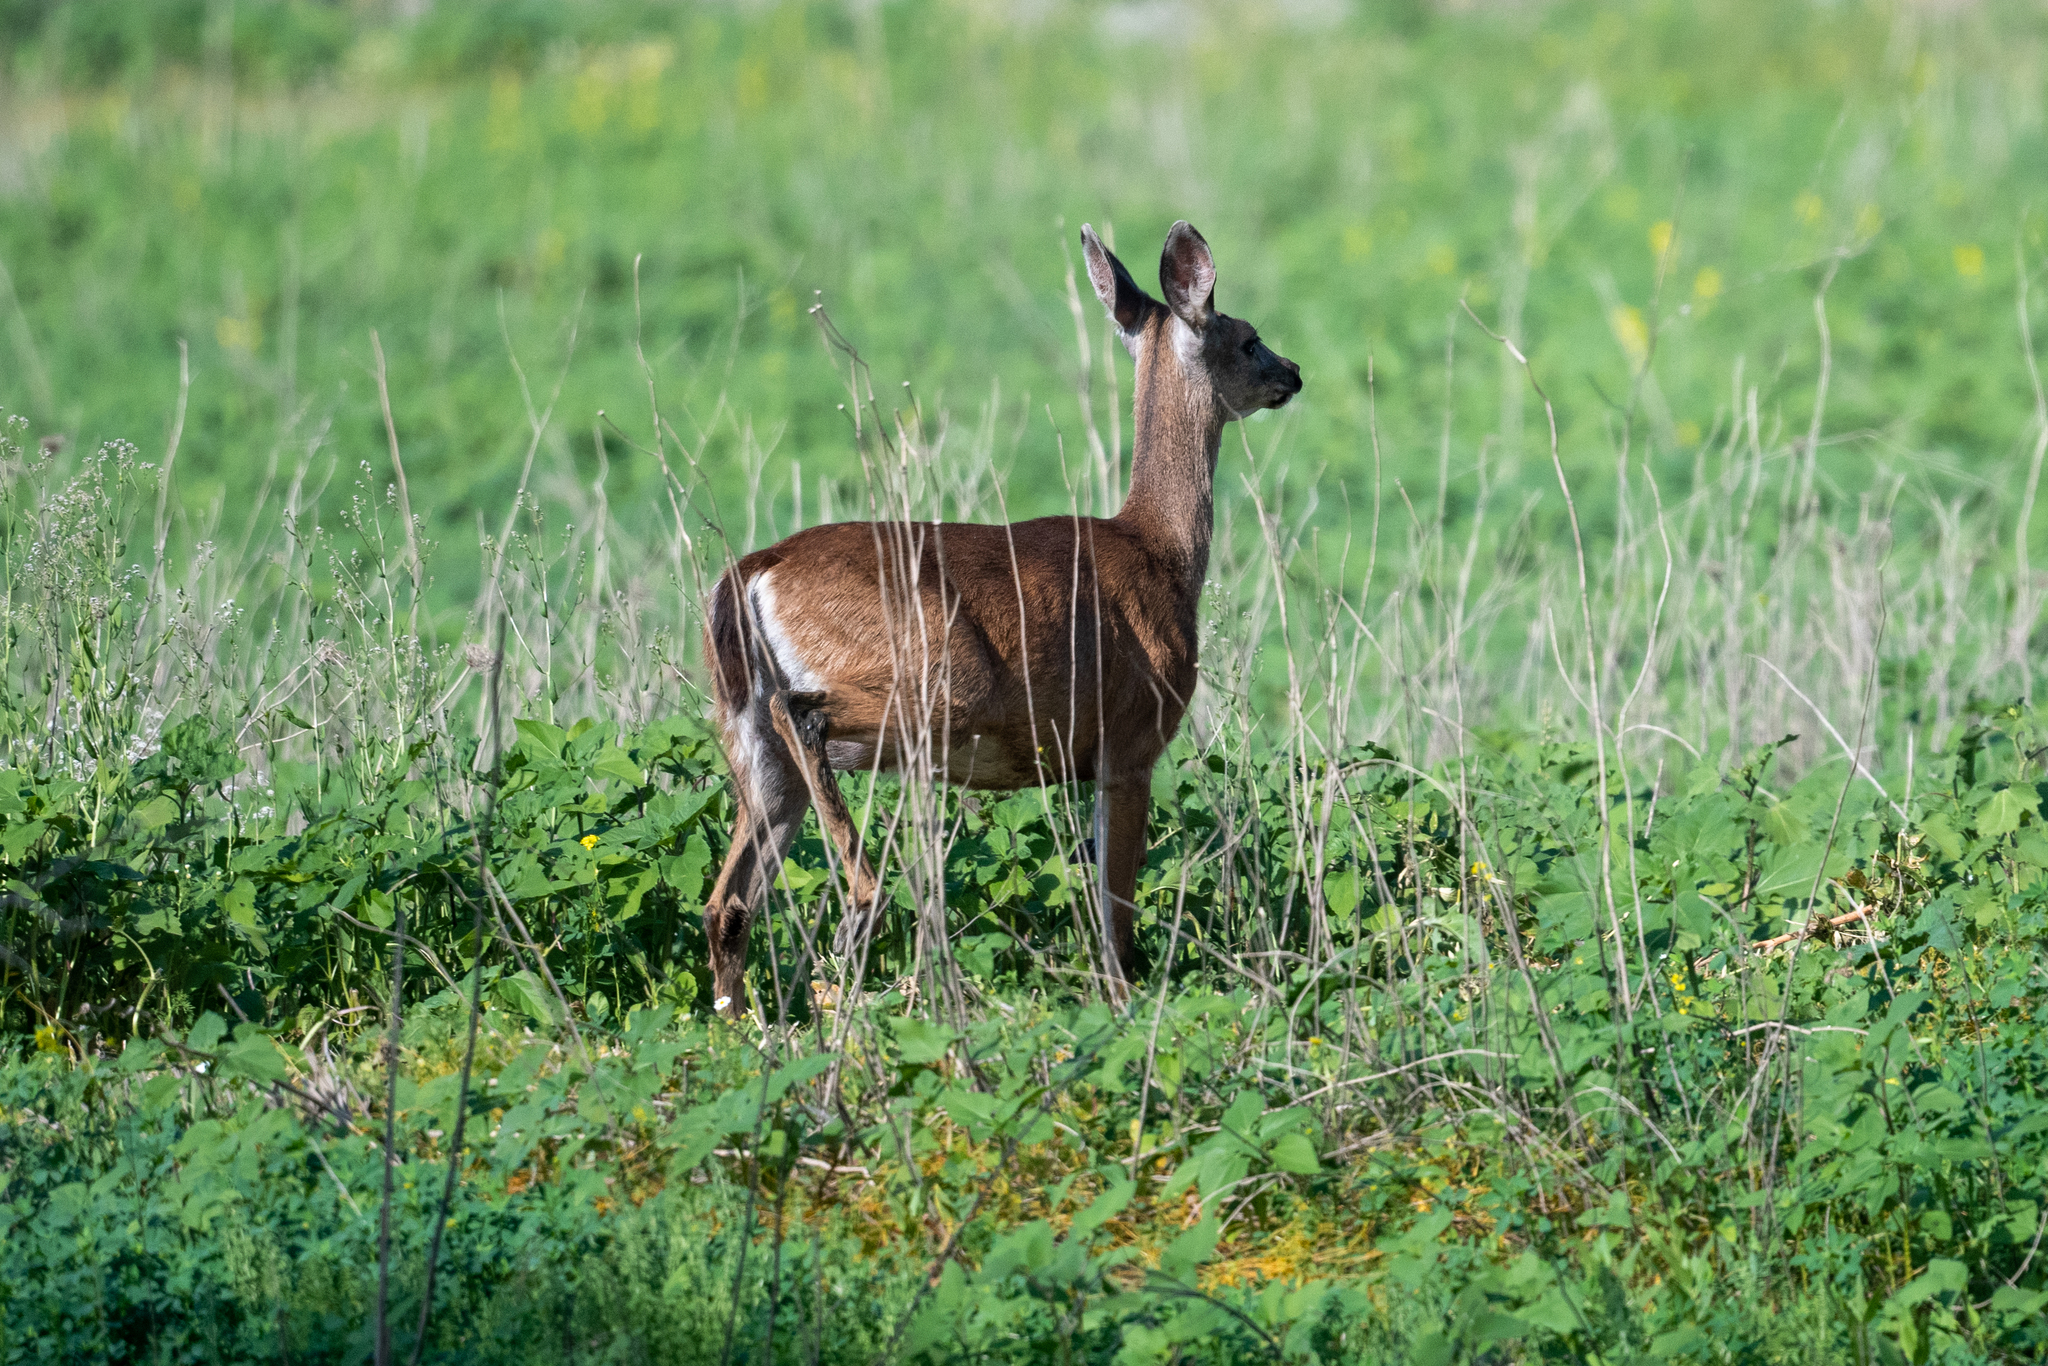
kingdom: Animalia
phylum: Chordata
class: Mammalia
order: Artiodactyla
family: Cervidae
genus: Odocoileus
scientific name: Odocoileus hemionus
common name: Mule deer
